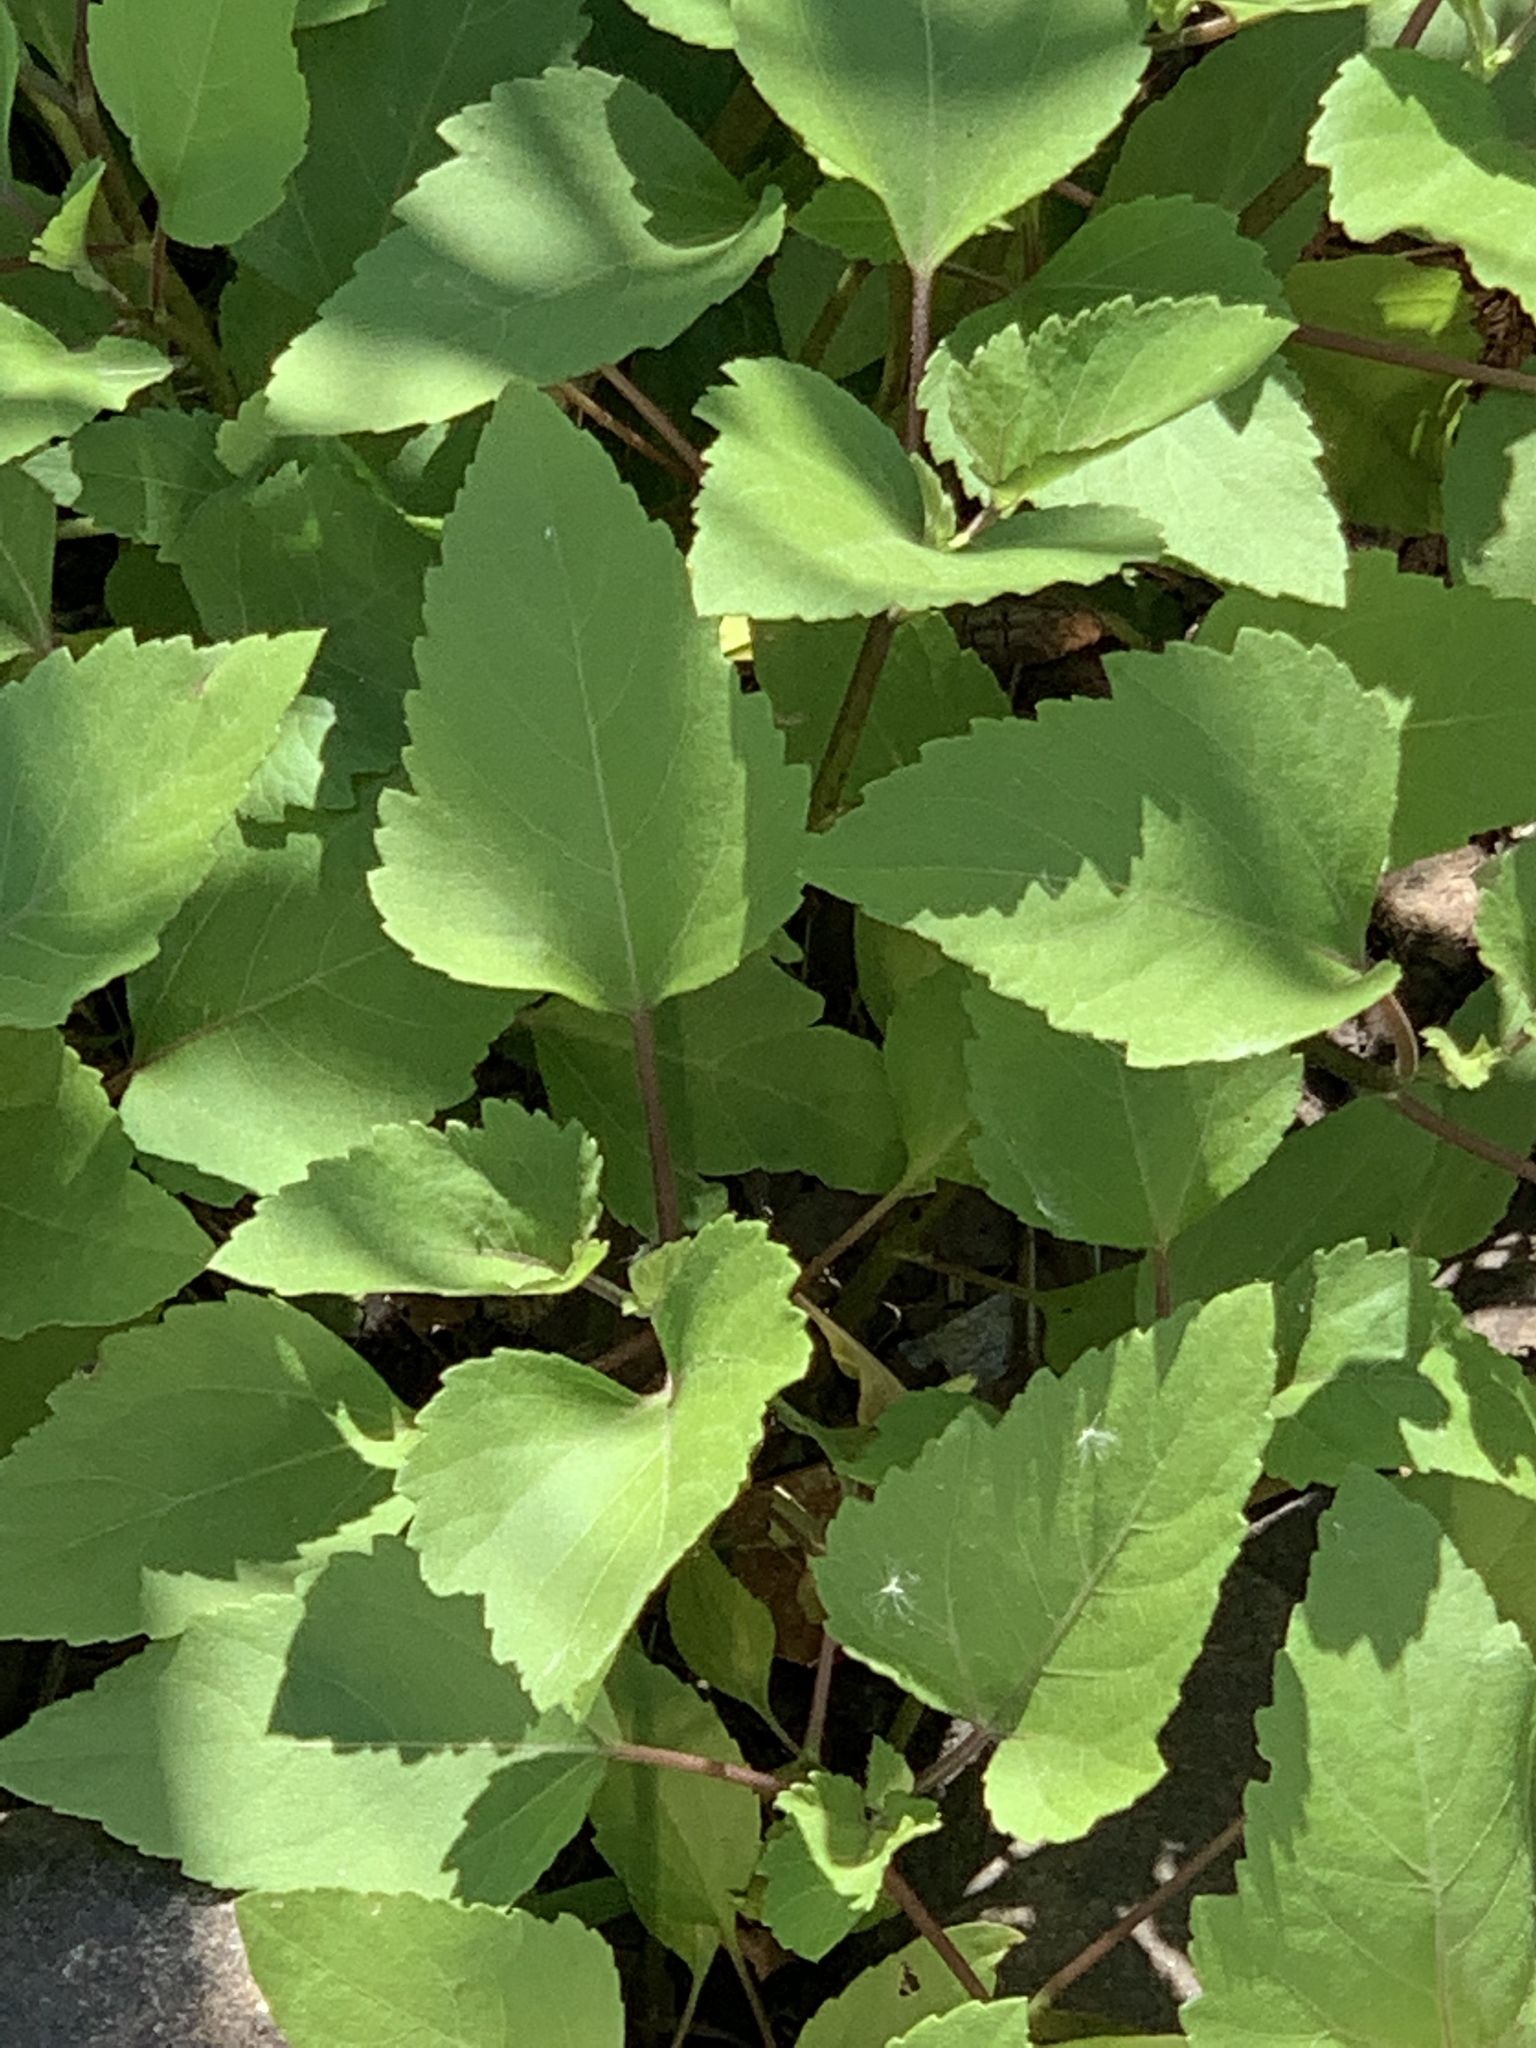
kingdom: Plantae
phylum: Tracheophyta
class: Magnoliopsida
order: Asterales
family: Asteraceae
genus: Xanthium
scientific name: Xanthium strumarium
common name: Rough cocklebur
